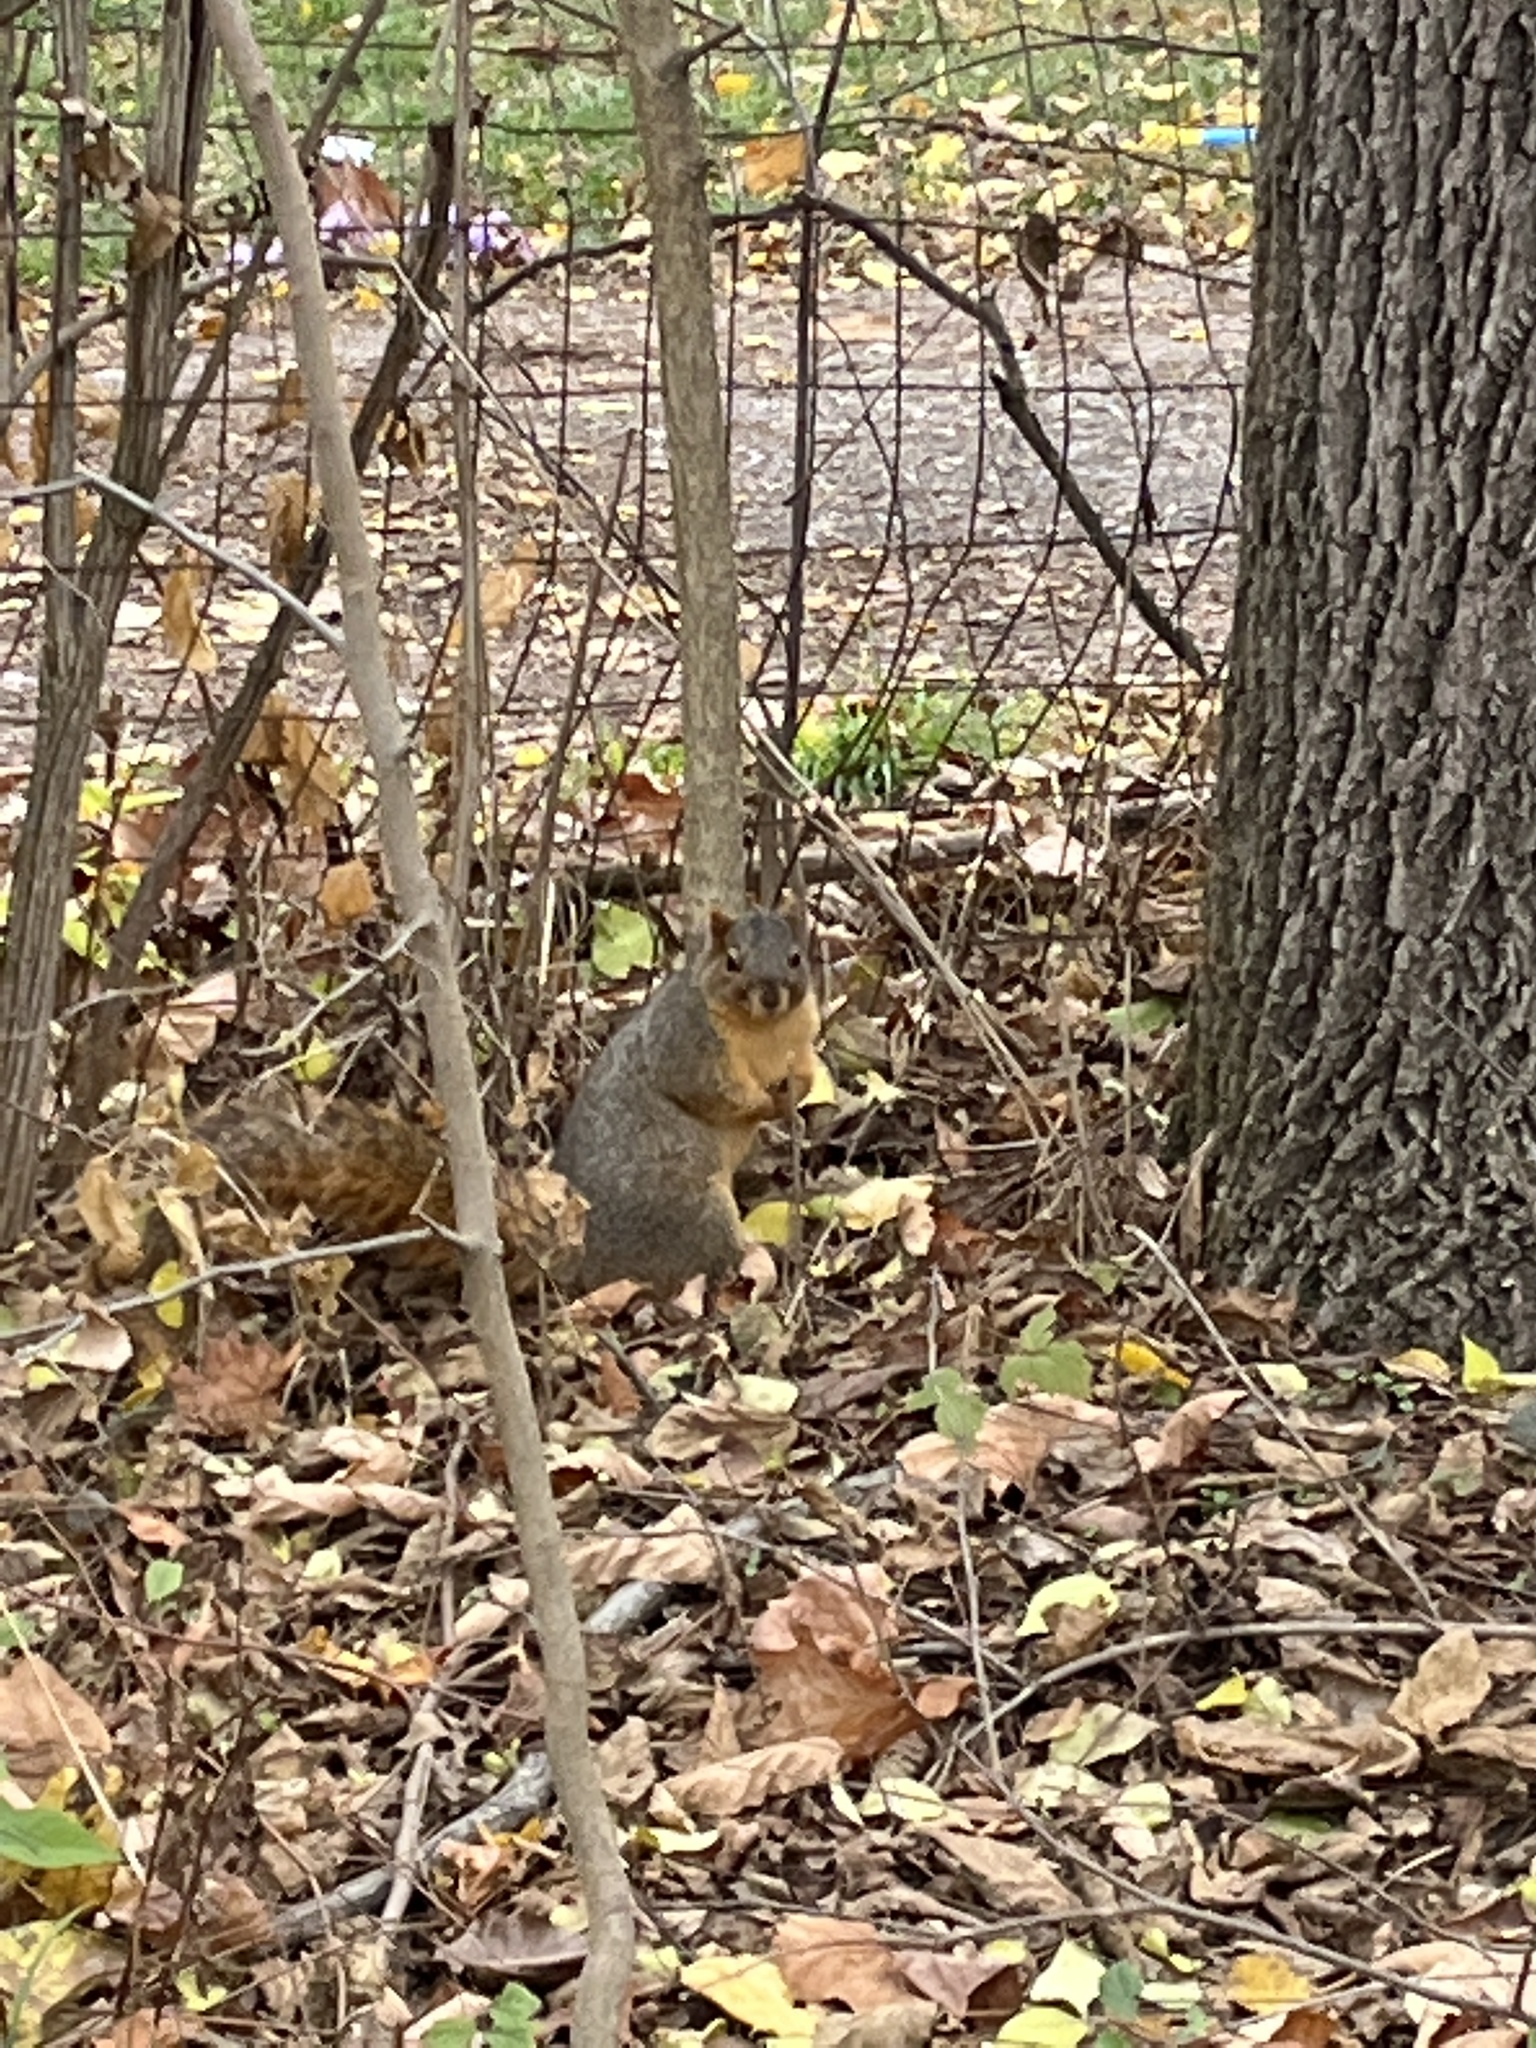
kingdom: Animalia
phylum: Chordata
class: Mammalia
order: Rodentia
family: Sciuridae
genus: Sciurus
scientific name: Sciurus niger
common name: Fox squirrel
